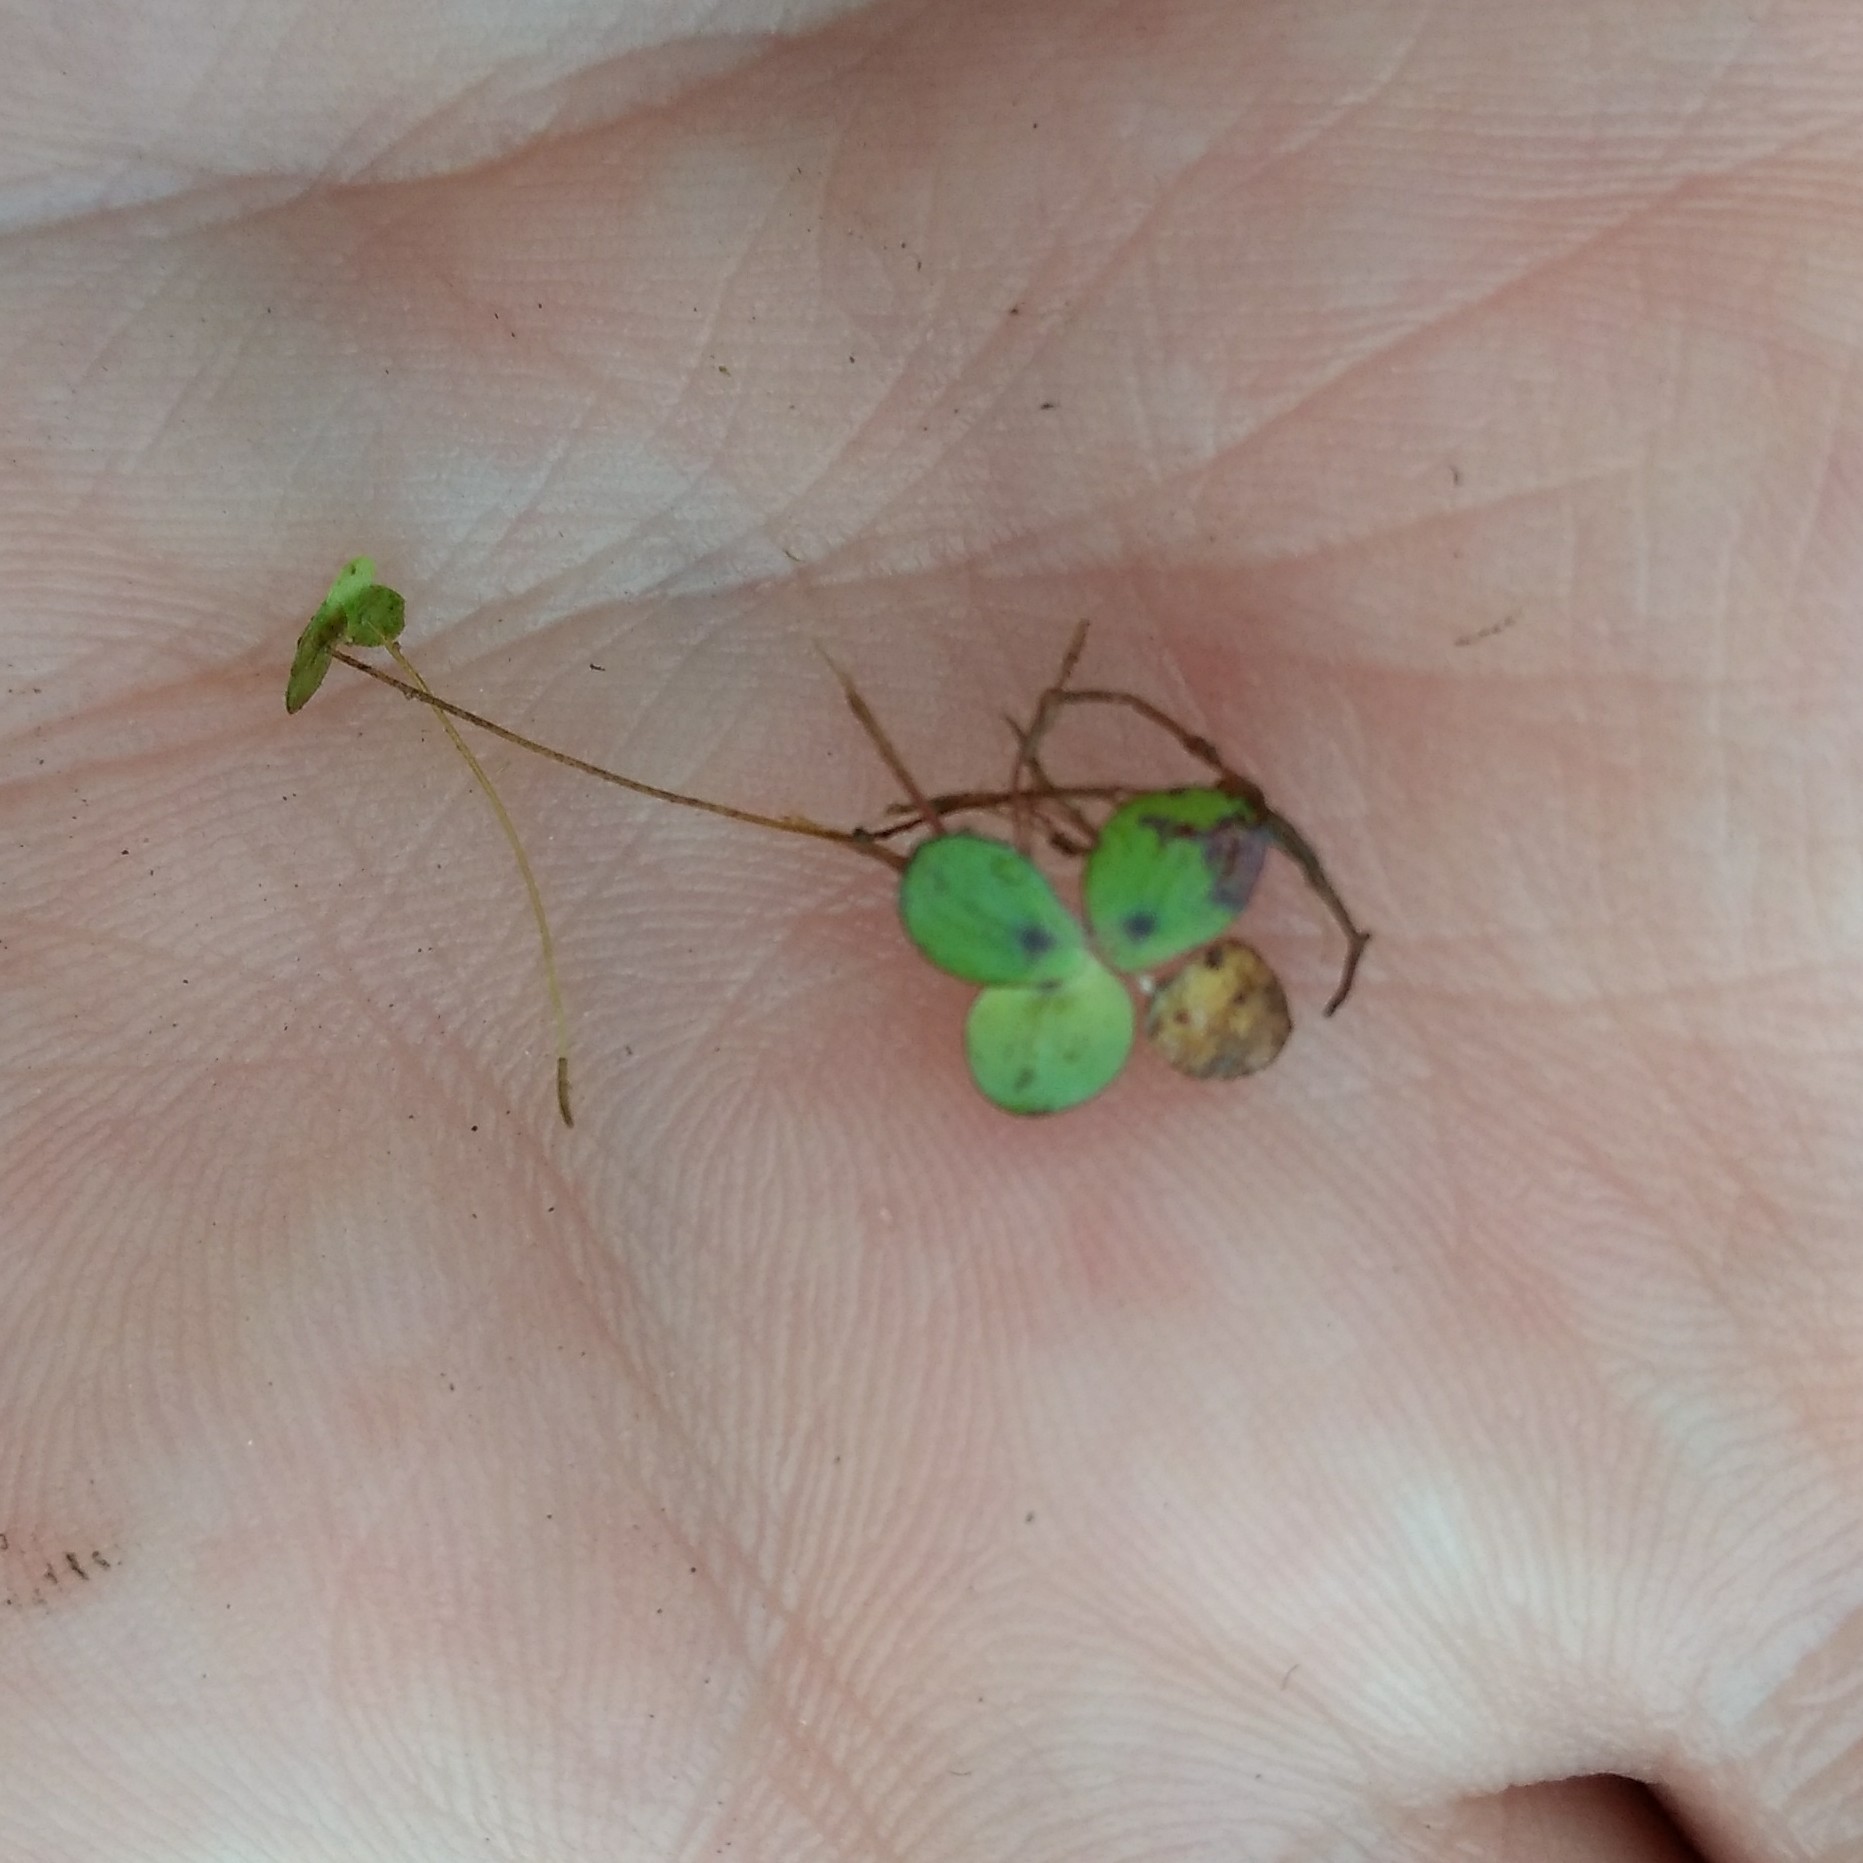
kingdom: Plantae
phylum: Tracheophyta
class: Liliopsida
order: Alismatales
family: Araceae
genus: Spirodela
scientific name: Spirodela polyrhiza
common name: Great duckweed
